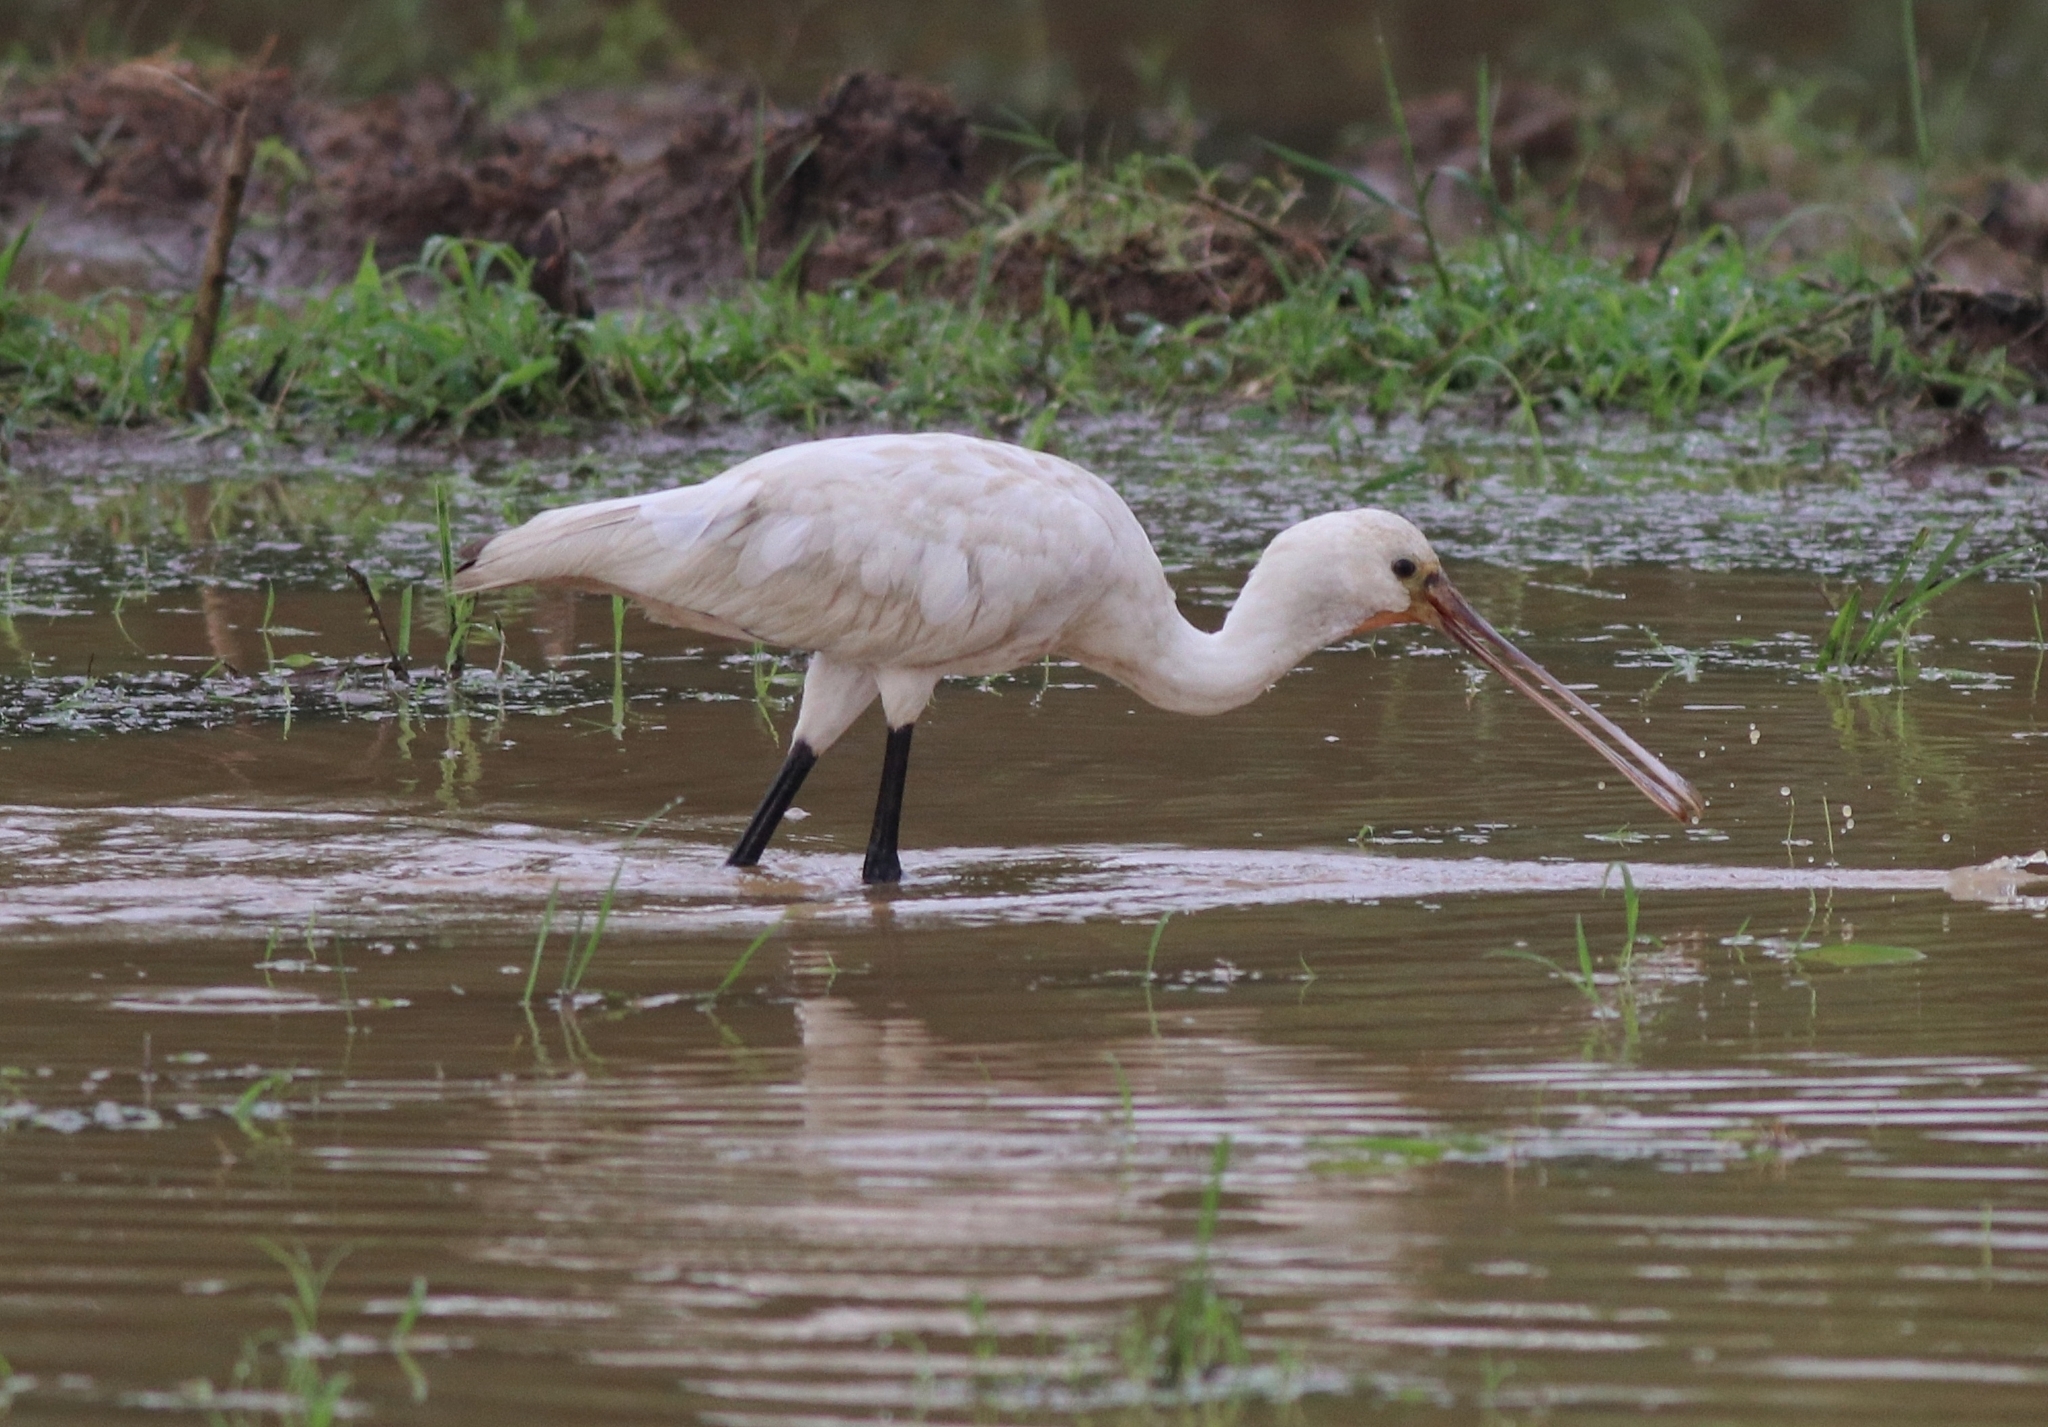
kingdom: Animalia
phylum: Chordata
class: Aves
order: Pelecaniformes
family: Threskiornithidae
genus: Platalea
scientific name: Platalea leucorodia
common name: Eurasian spoonbill
